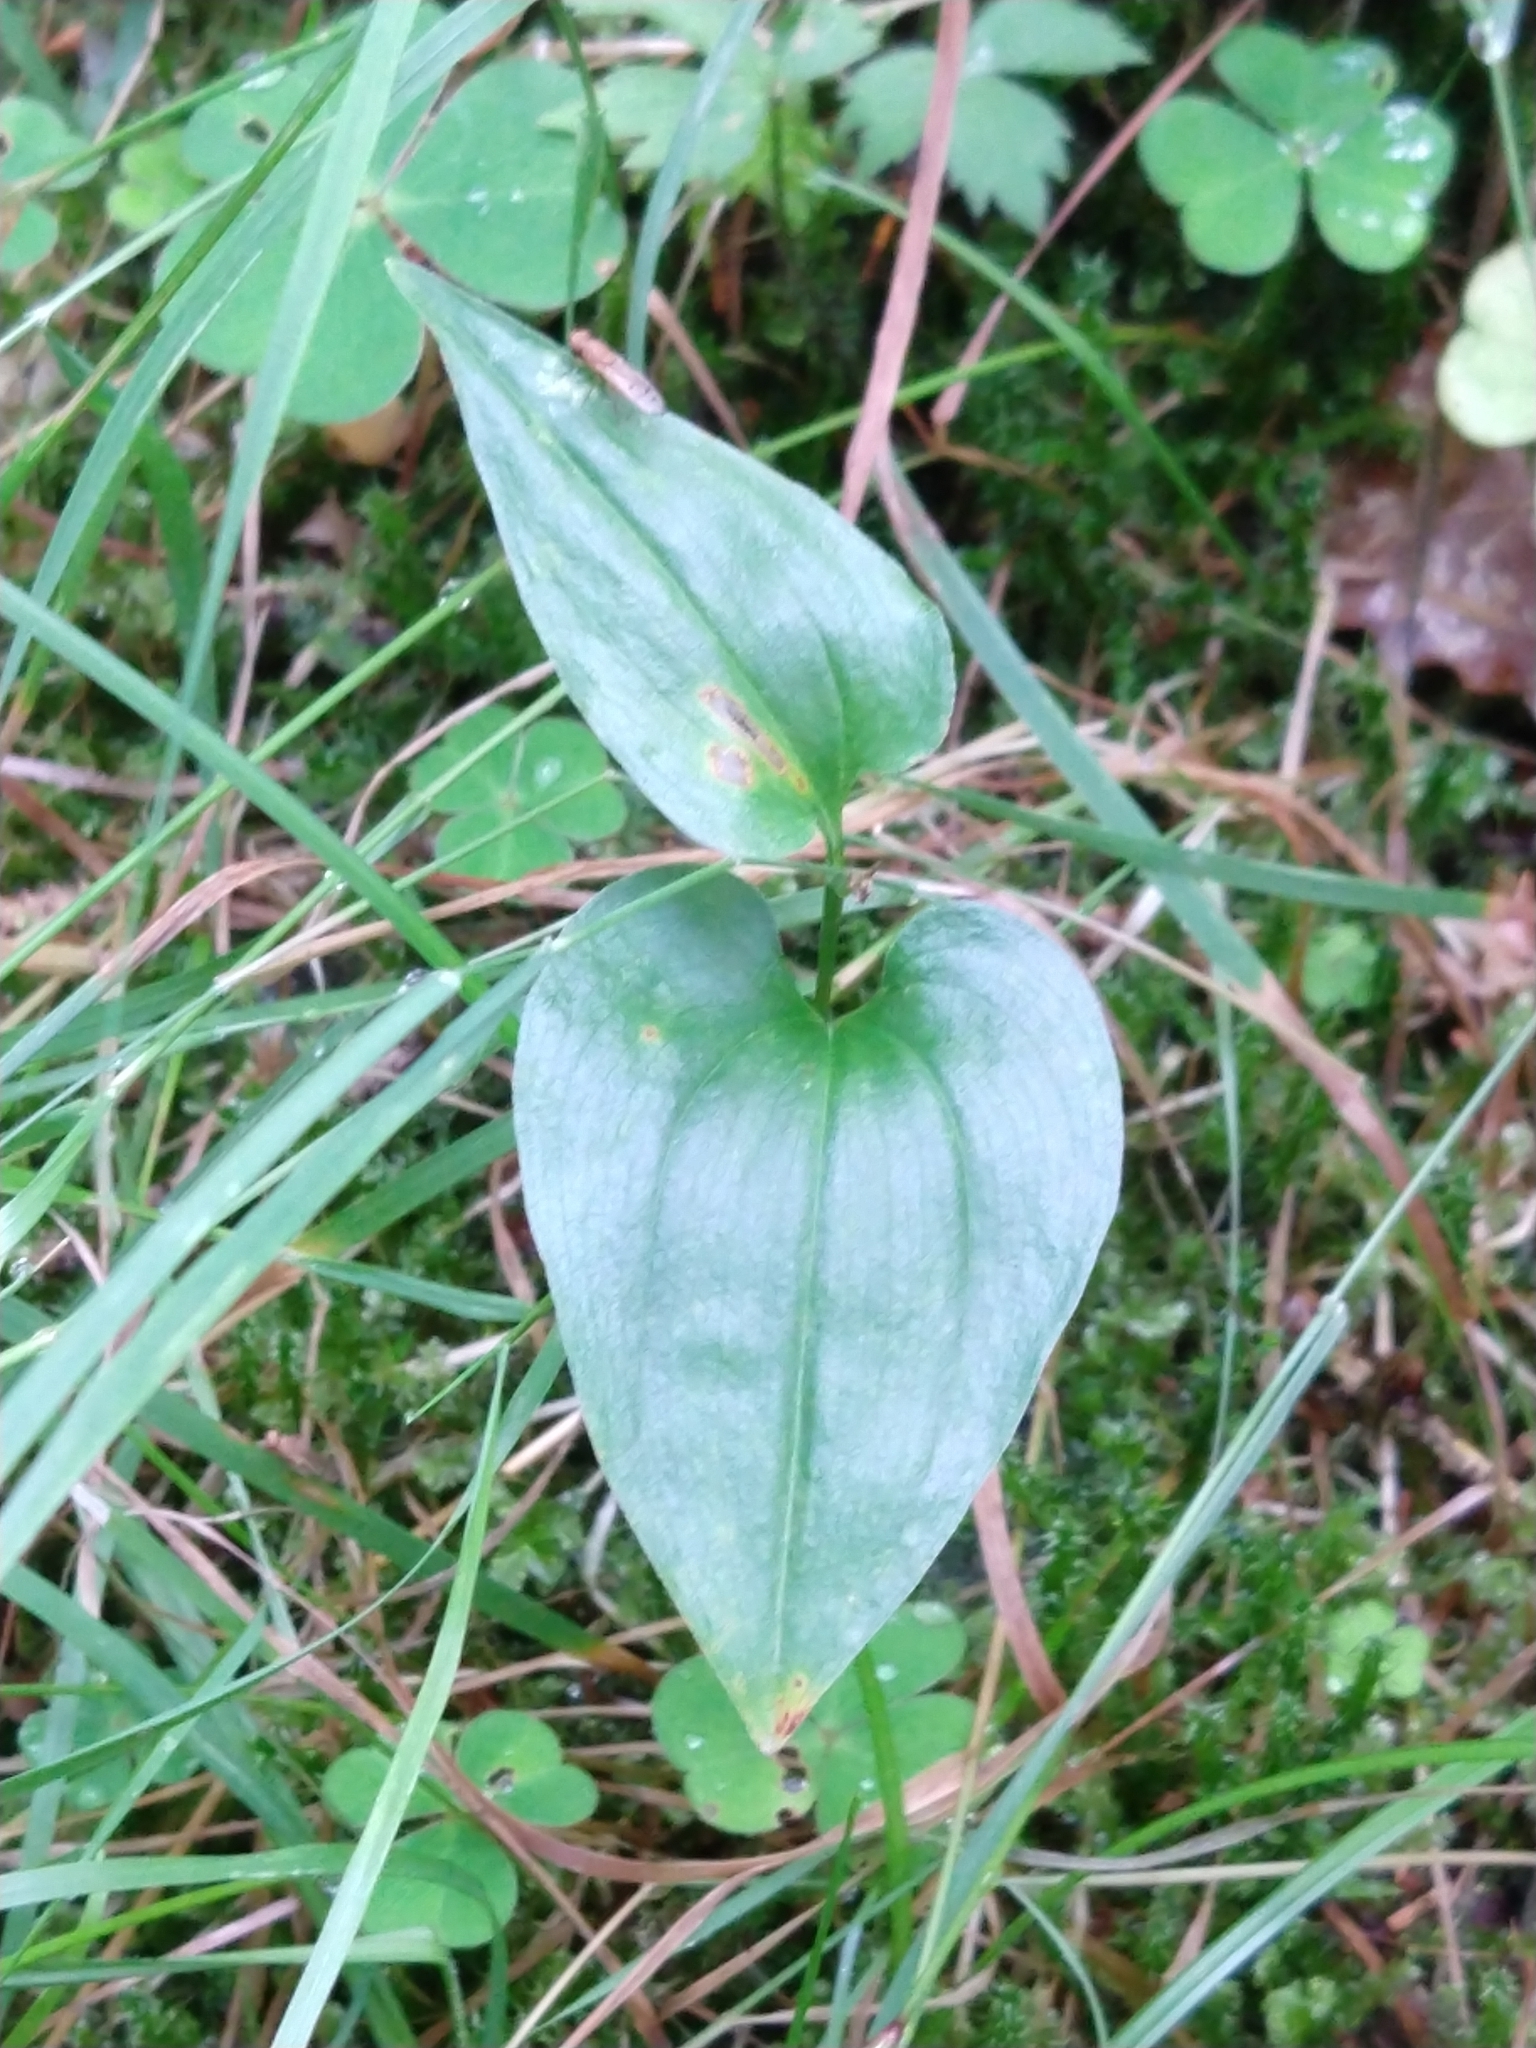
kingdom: Plantae
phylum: Tracheophyta
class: Liliopsida
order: Asparagales
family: Asparagaceae
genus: Maianthemum
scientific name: Maianthemum bifolium
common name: May lily
